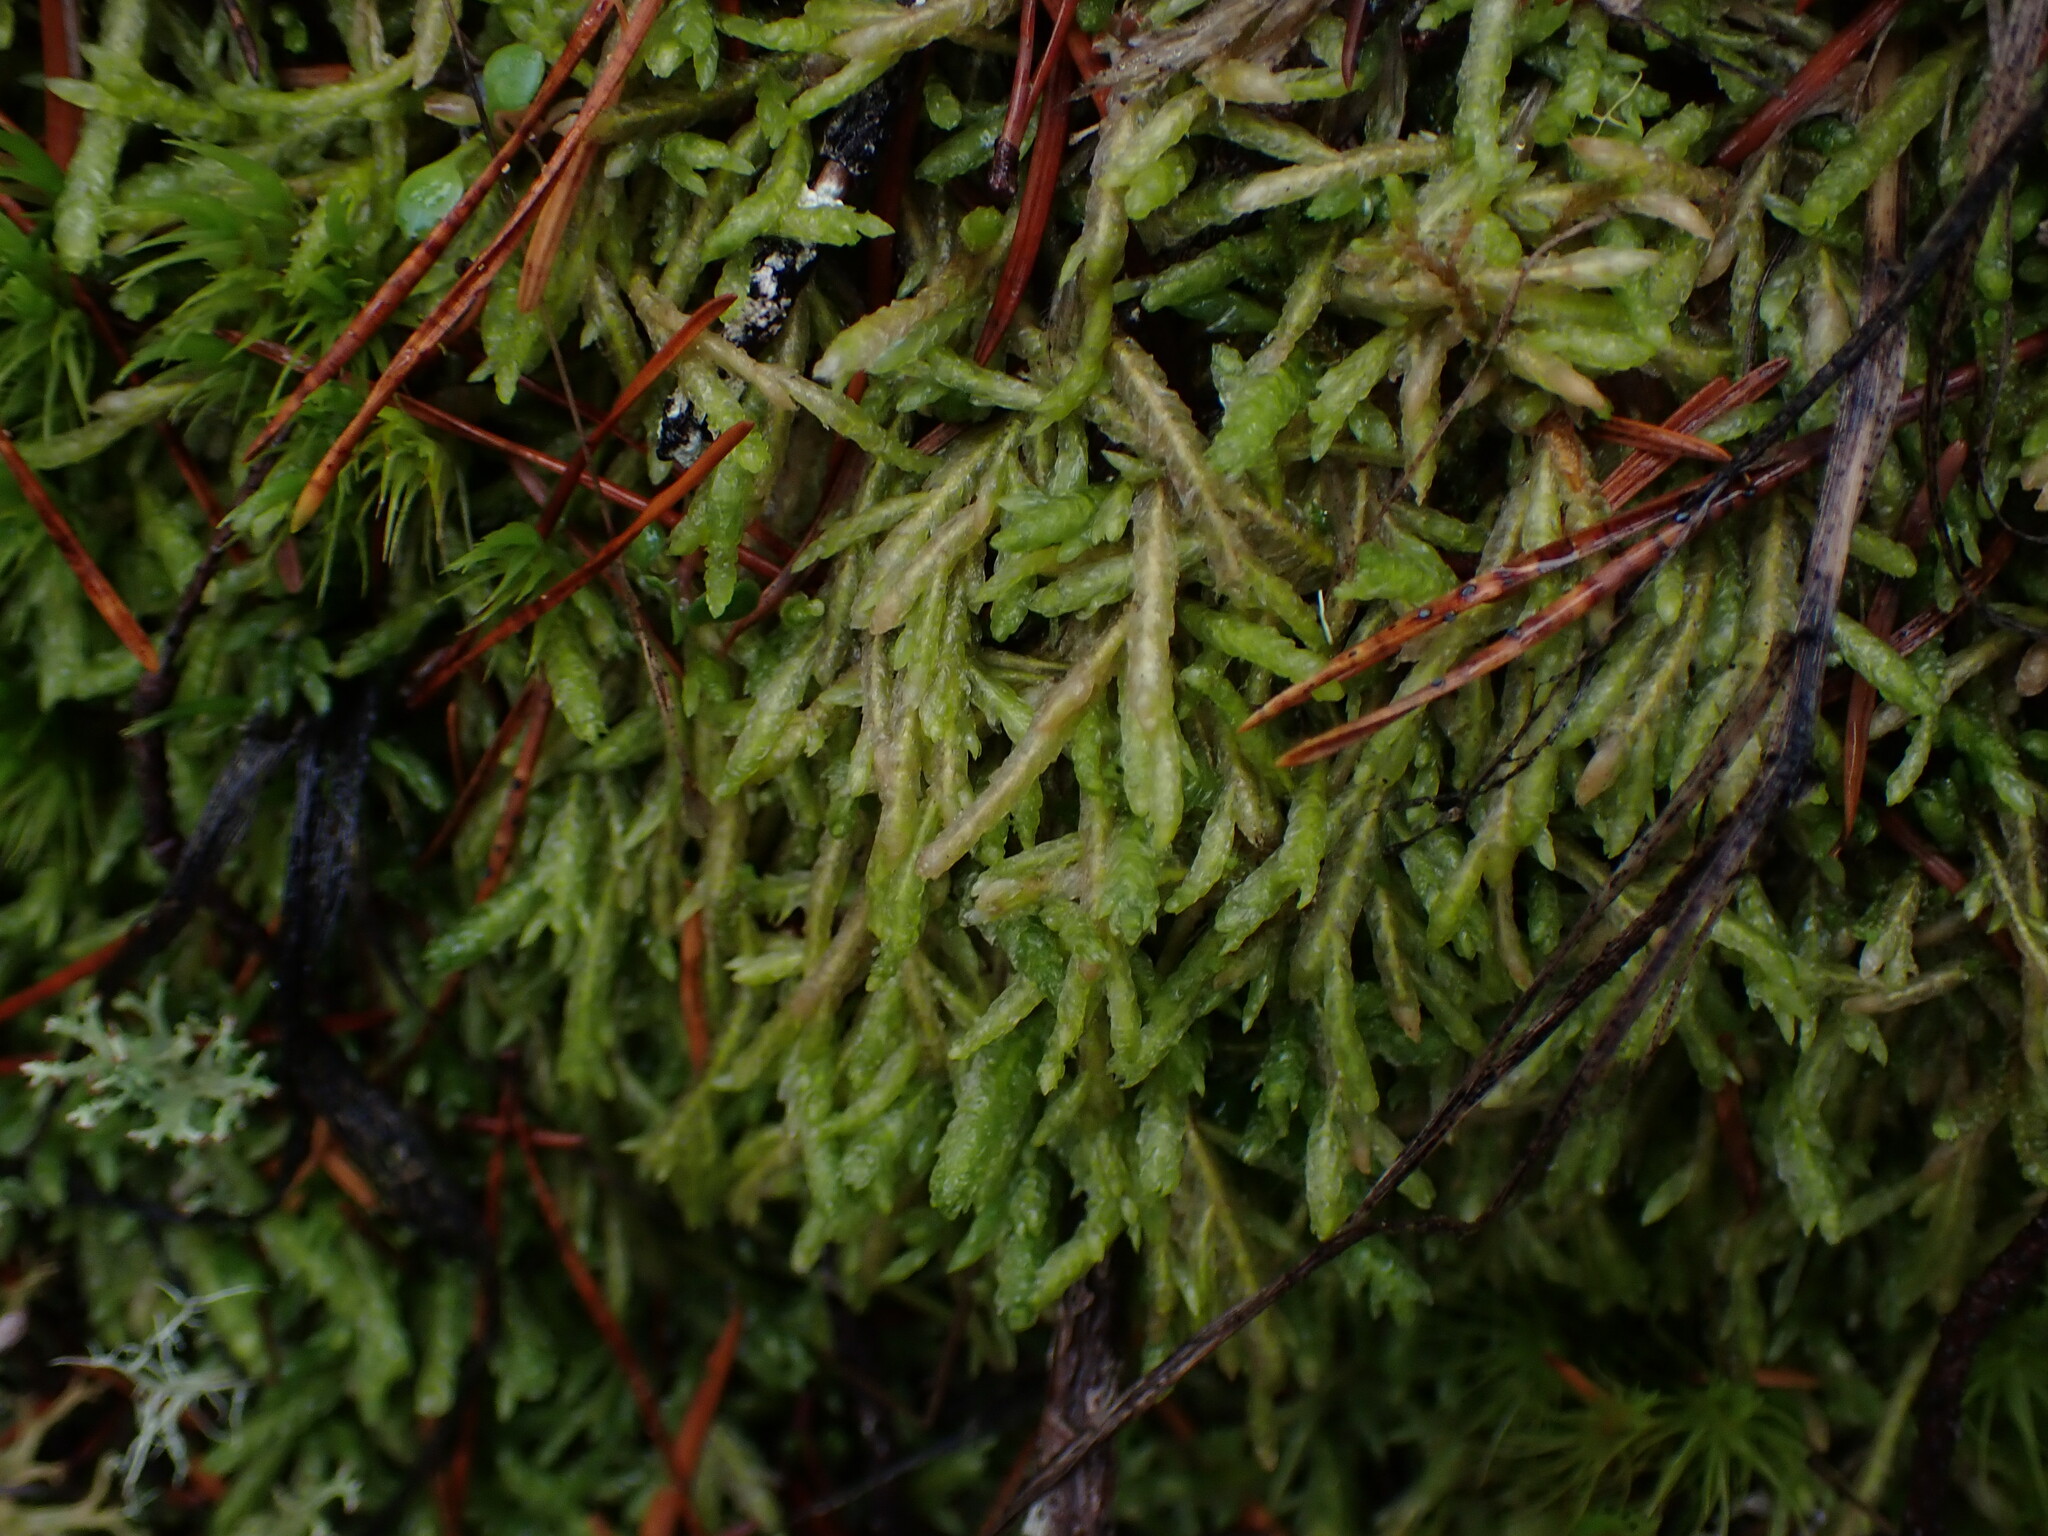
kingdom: Plantae
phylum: Bryophyta
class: Bryopsida
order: Hypnales
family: Plagiotheciaceae
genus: Plagiothecium
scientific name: Plagiothecium undulatum
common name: Waved silk-moss
